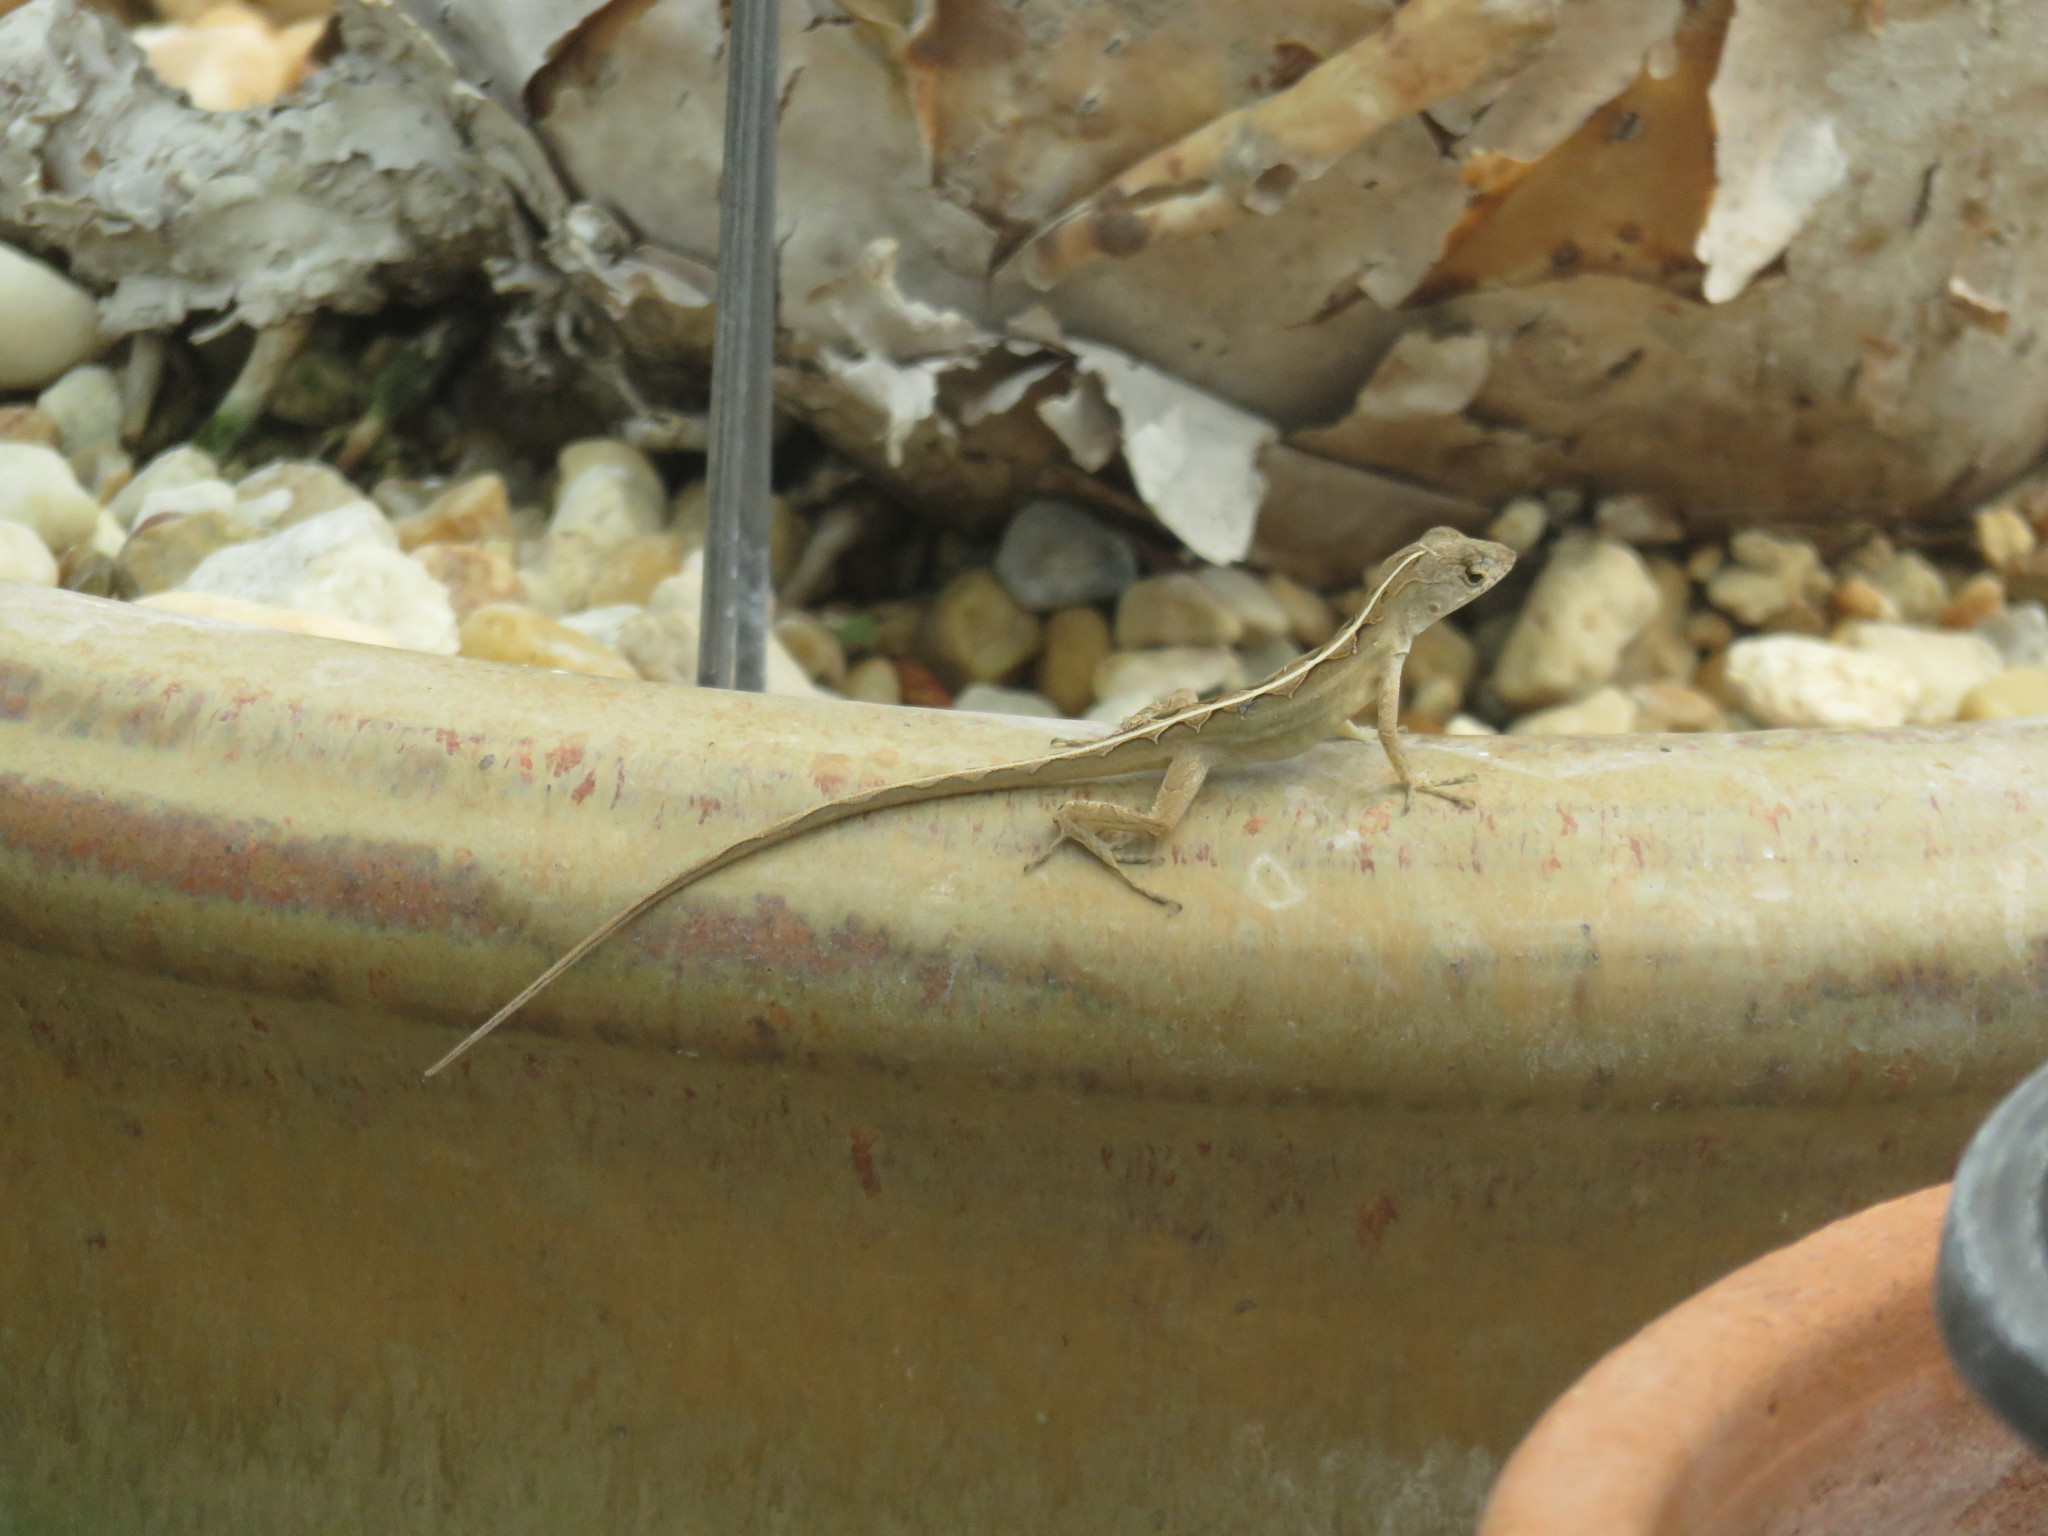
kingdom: Animalia
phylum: Chordata
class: Squamata
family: Dactyloidae
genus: Anolis
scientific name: Anolis sagrei
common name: Brown anole
